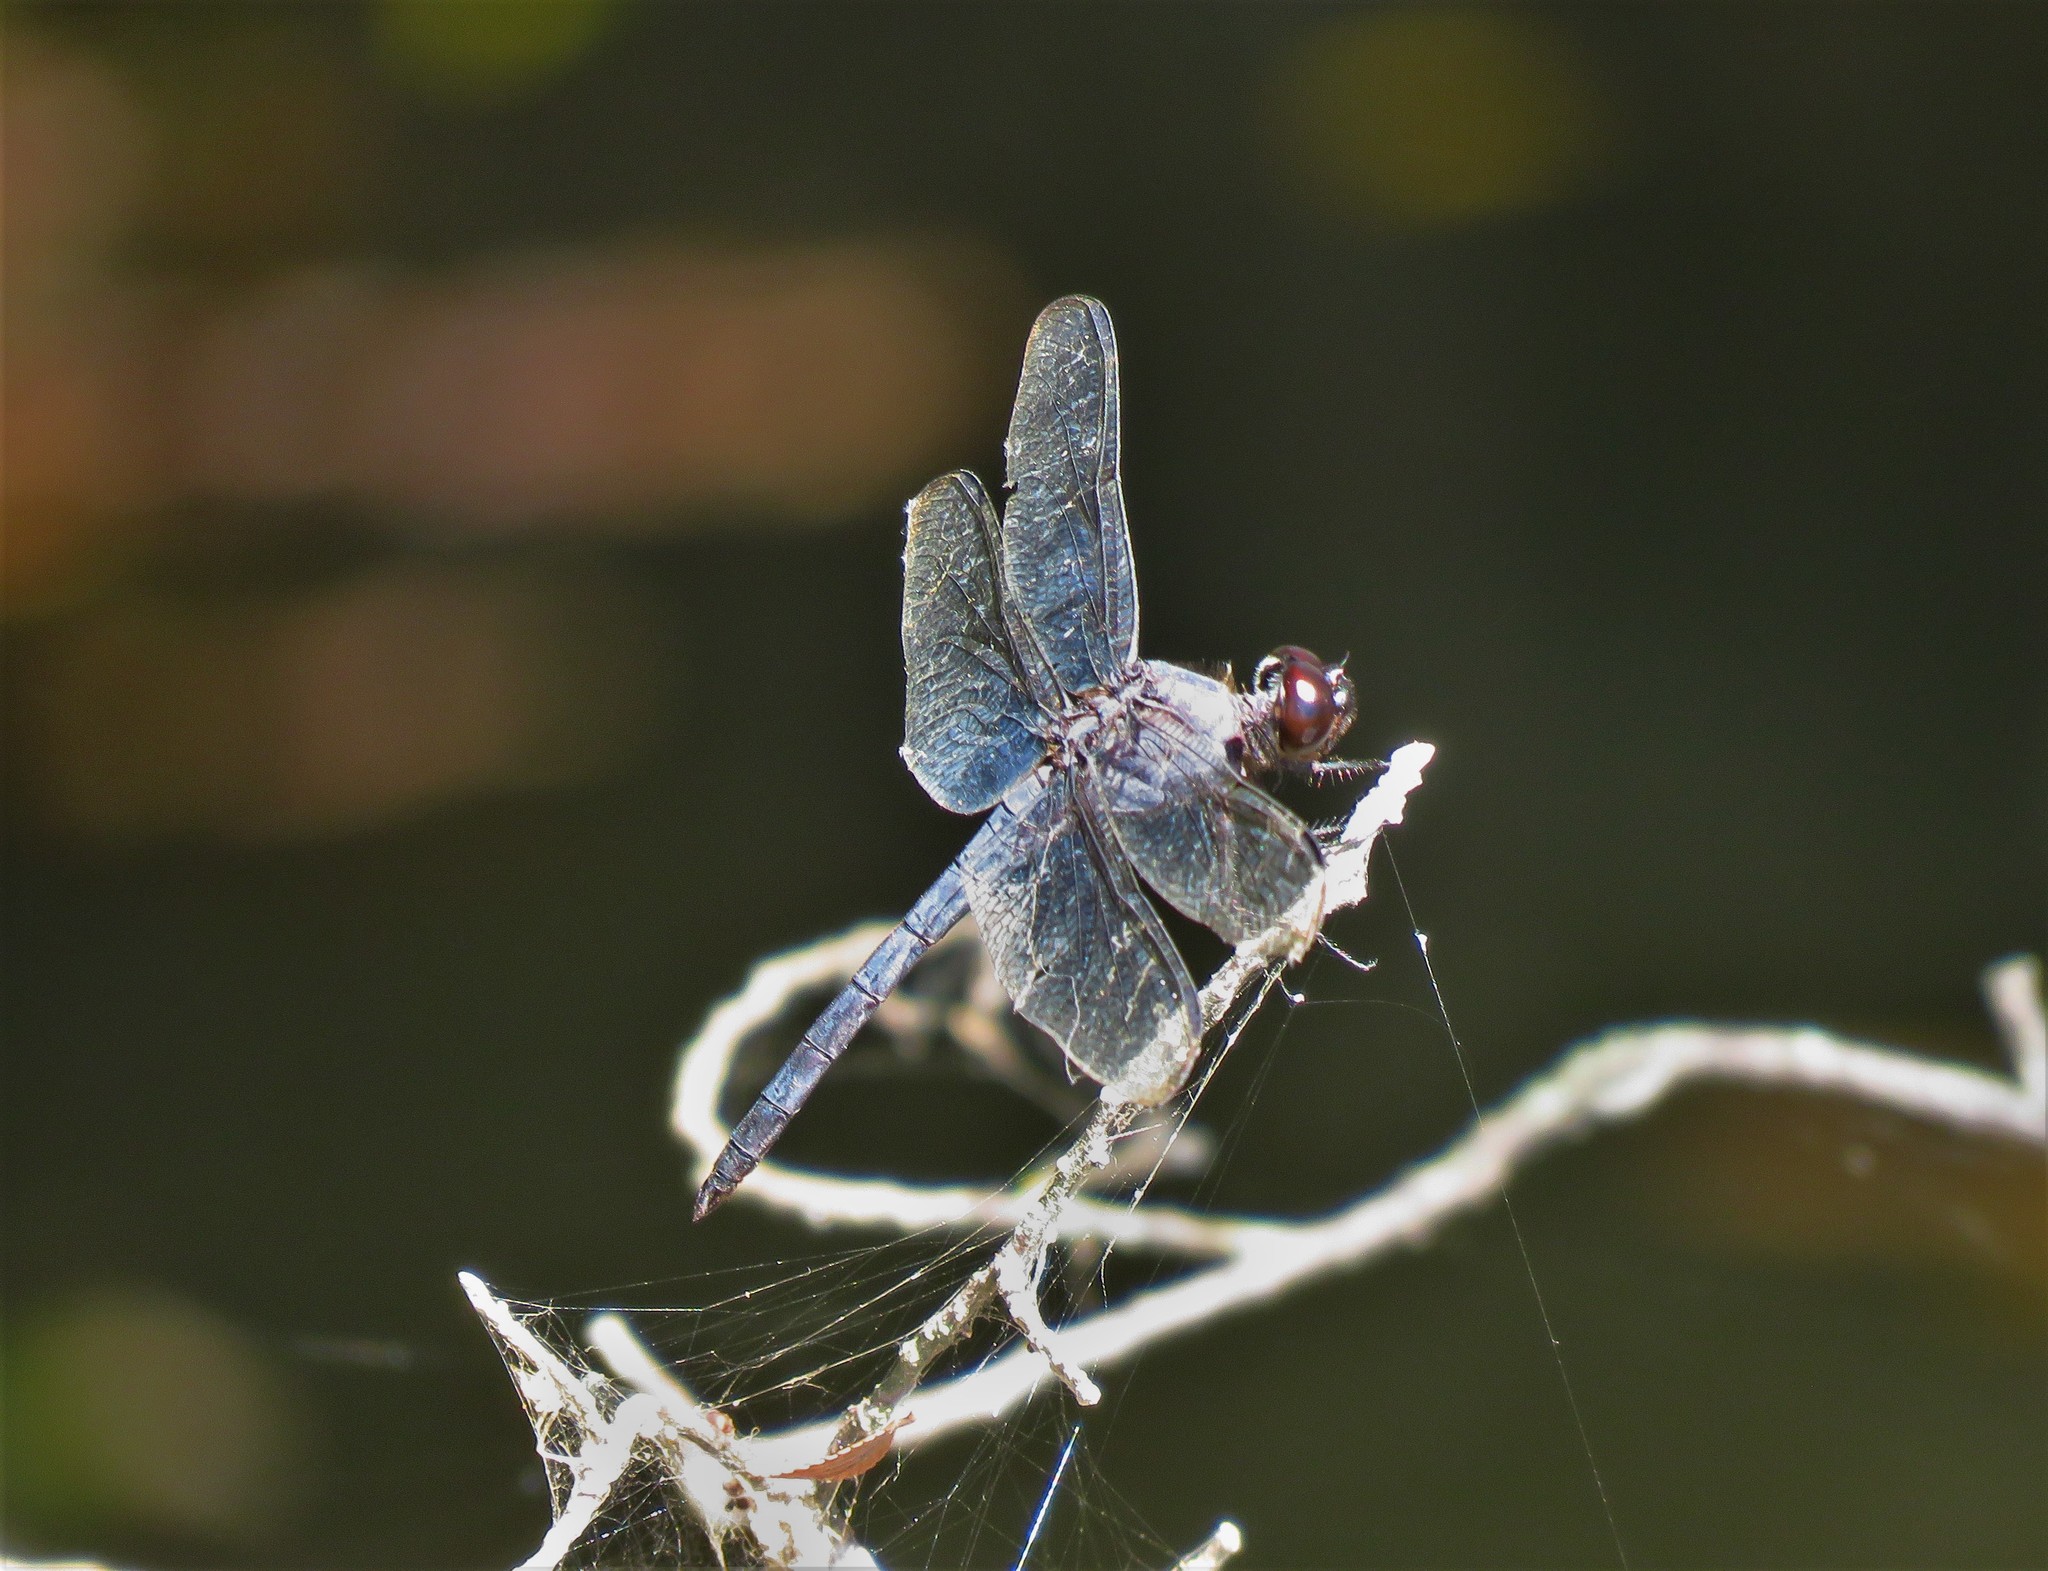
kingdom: Animalia
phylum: Arthropoda
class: Insecta
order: Odonata
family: Libellulidae
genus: Libellula
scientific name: Libellula incesta
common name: Slaty skimmer
